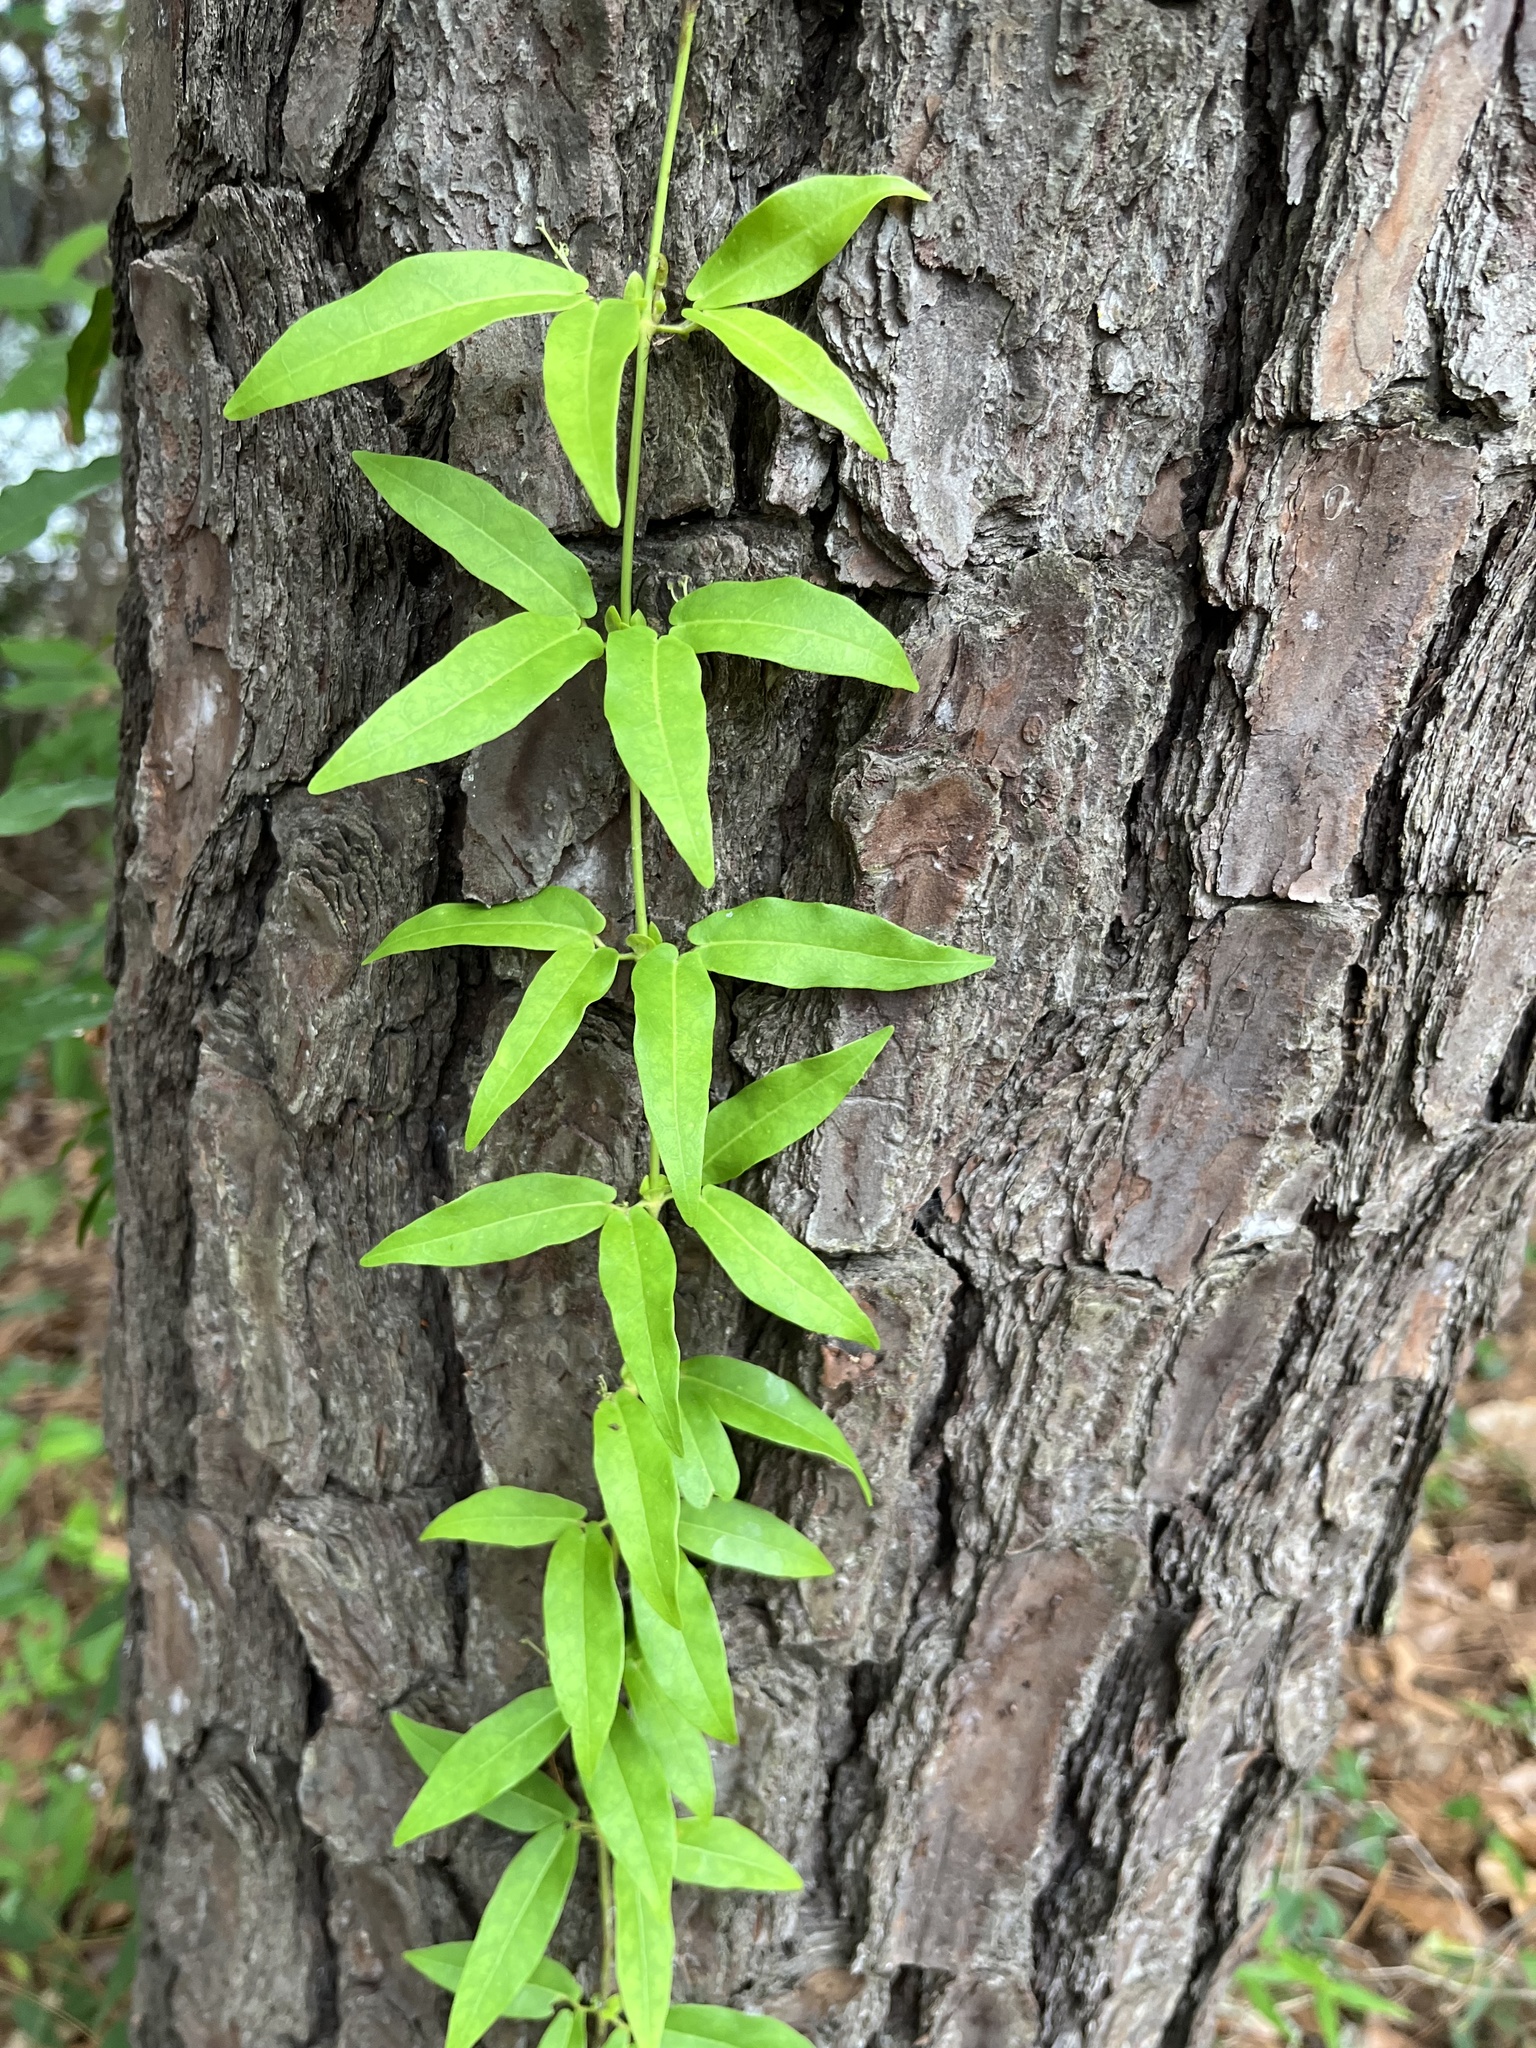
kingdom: Plantae
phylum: Tracheophyta
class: Magnoliopsida
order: Lamiales
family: Bignoniaceae
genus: Bignonia
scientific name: Bignonia capreolata
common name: Crossvine
